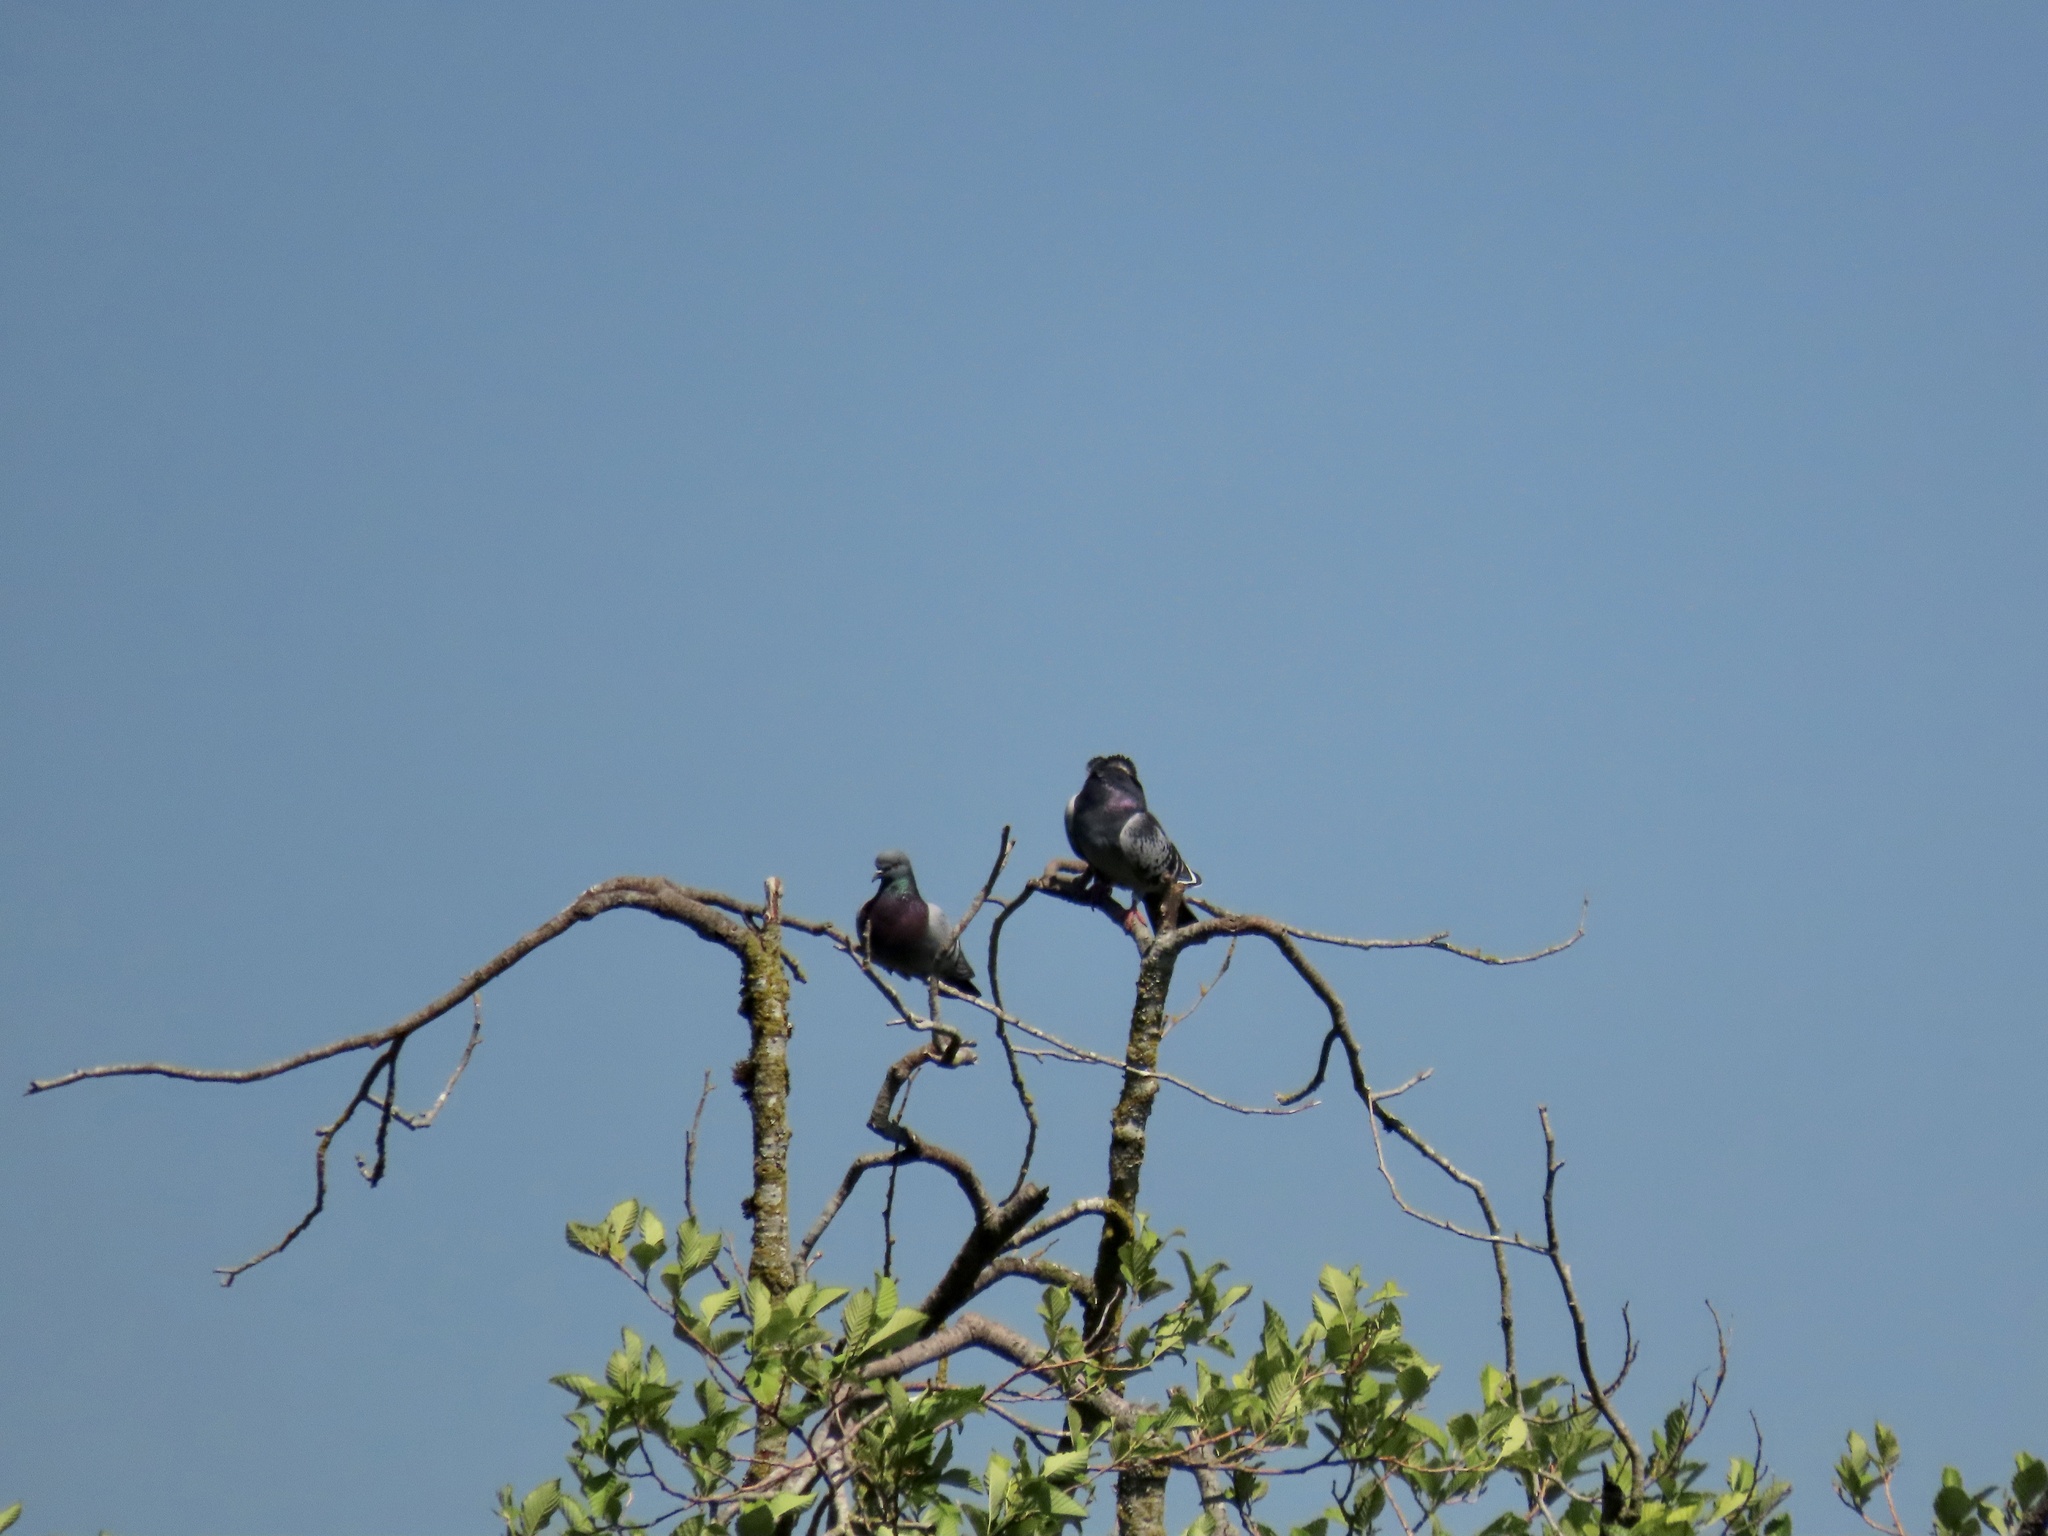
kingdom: Animalia
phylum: Chordata
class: Aves
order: Columbiformes
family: Columbidae
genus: Columba
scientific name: Columba livia
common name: Rock pigeon
